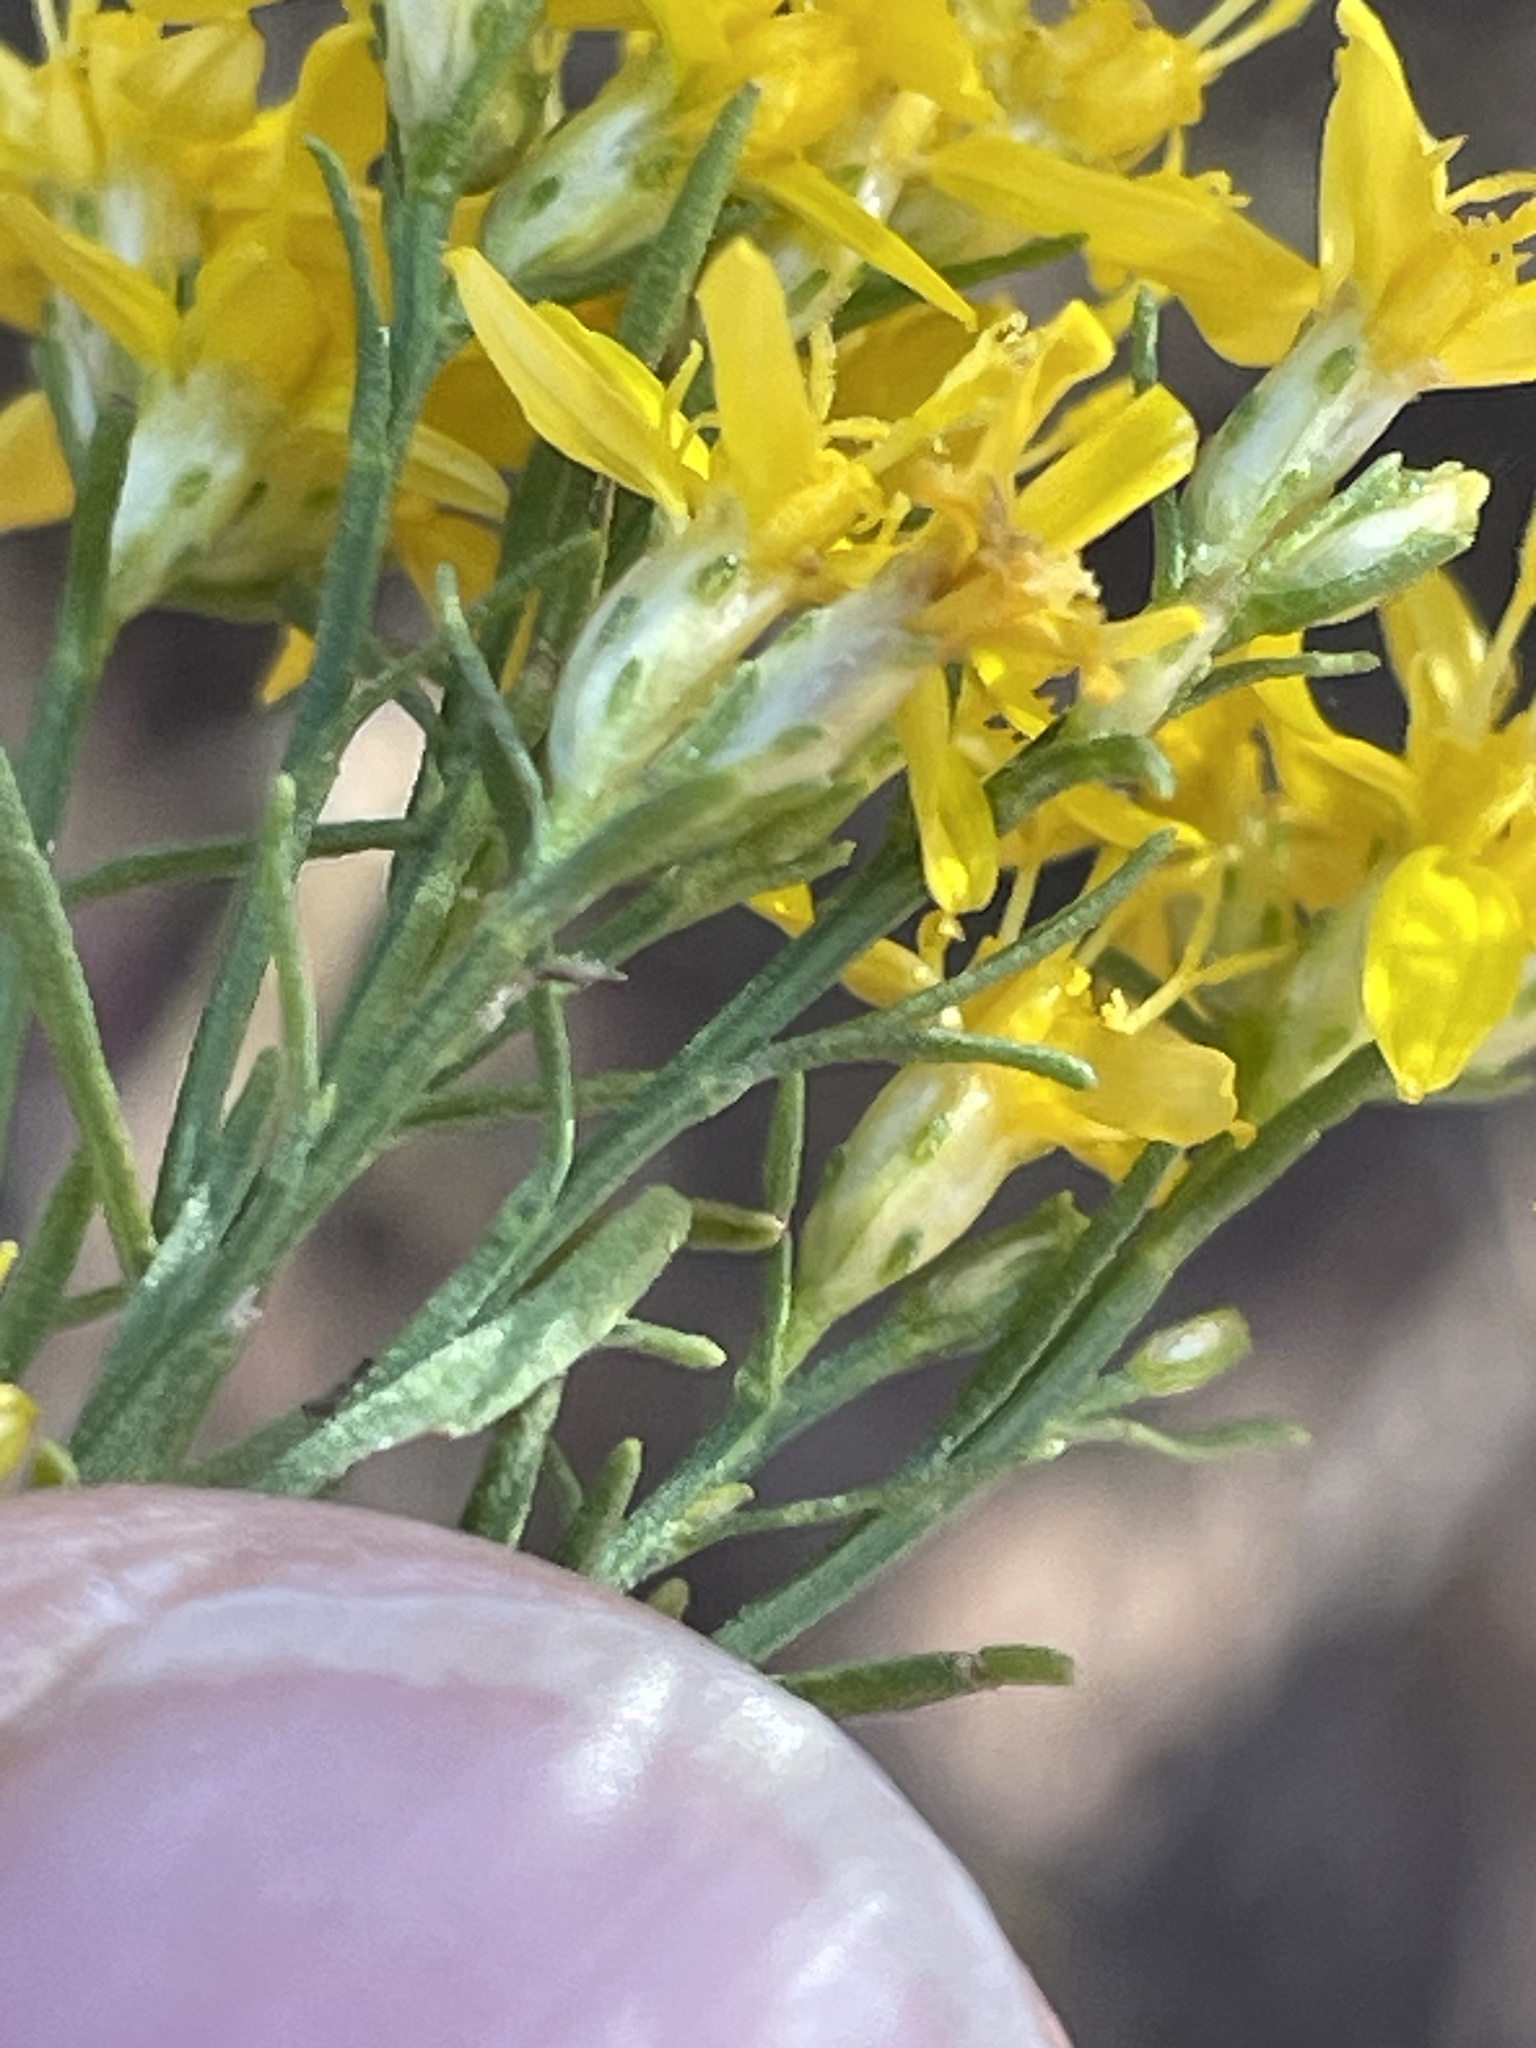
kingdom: Plantae
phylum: Tracheophyta
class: Magnoliopsida
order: Asterales
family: Asteraceae
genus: Gutierrezia
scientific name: Gutierrezia sarothrae
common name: Broom snakeweed
